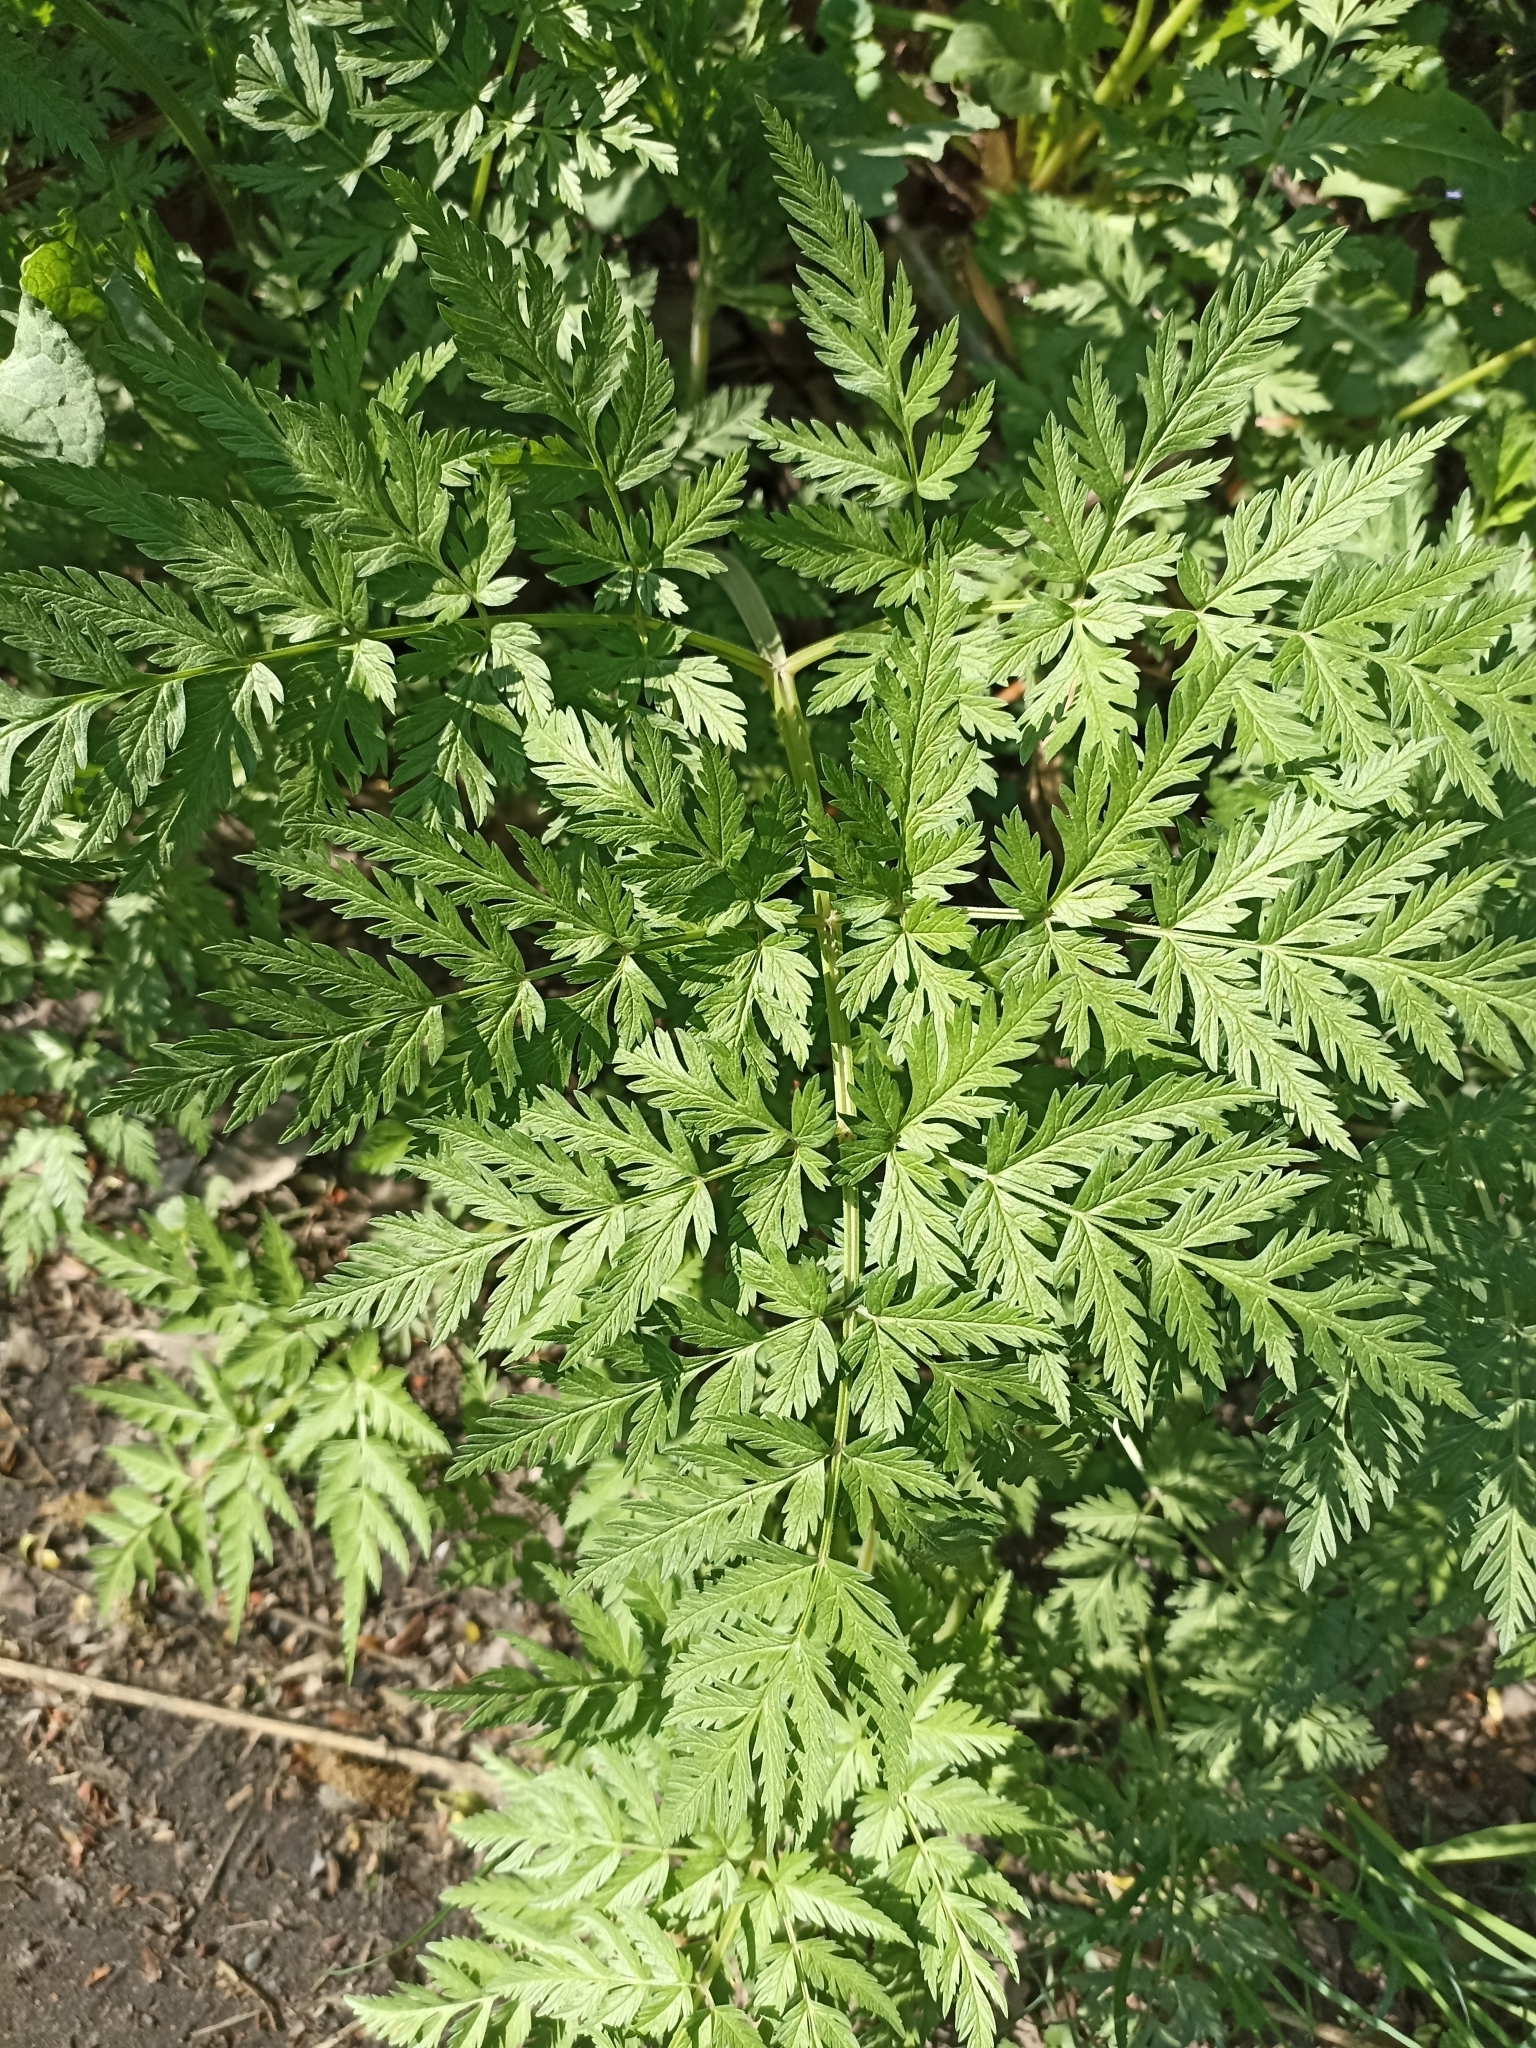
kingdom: Plantae
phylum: Tracheophyta
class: Magnoliopsida
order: Apiales
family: Apiaceae
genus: Anthriscus
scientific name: Anthriscus sylvestris
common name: Cow parsley
